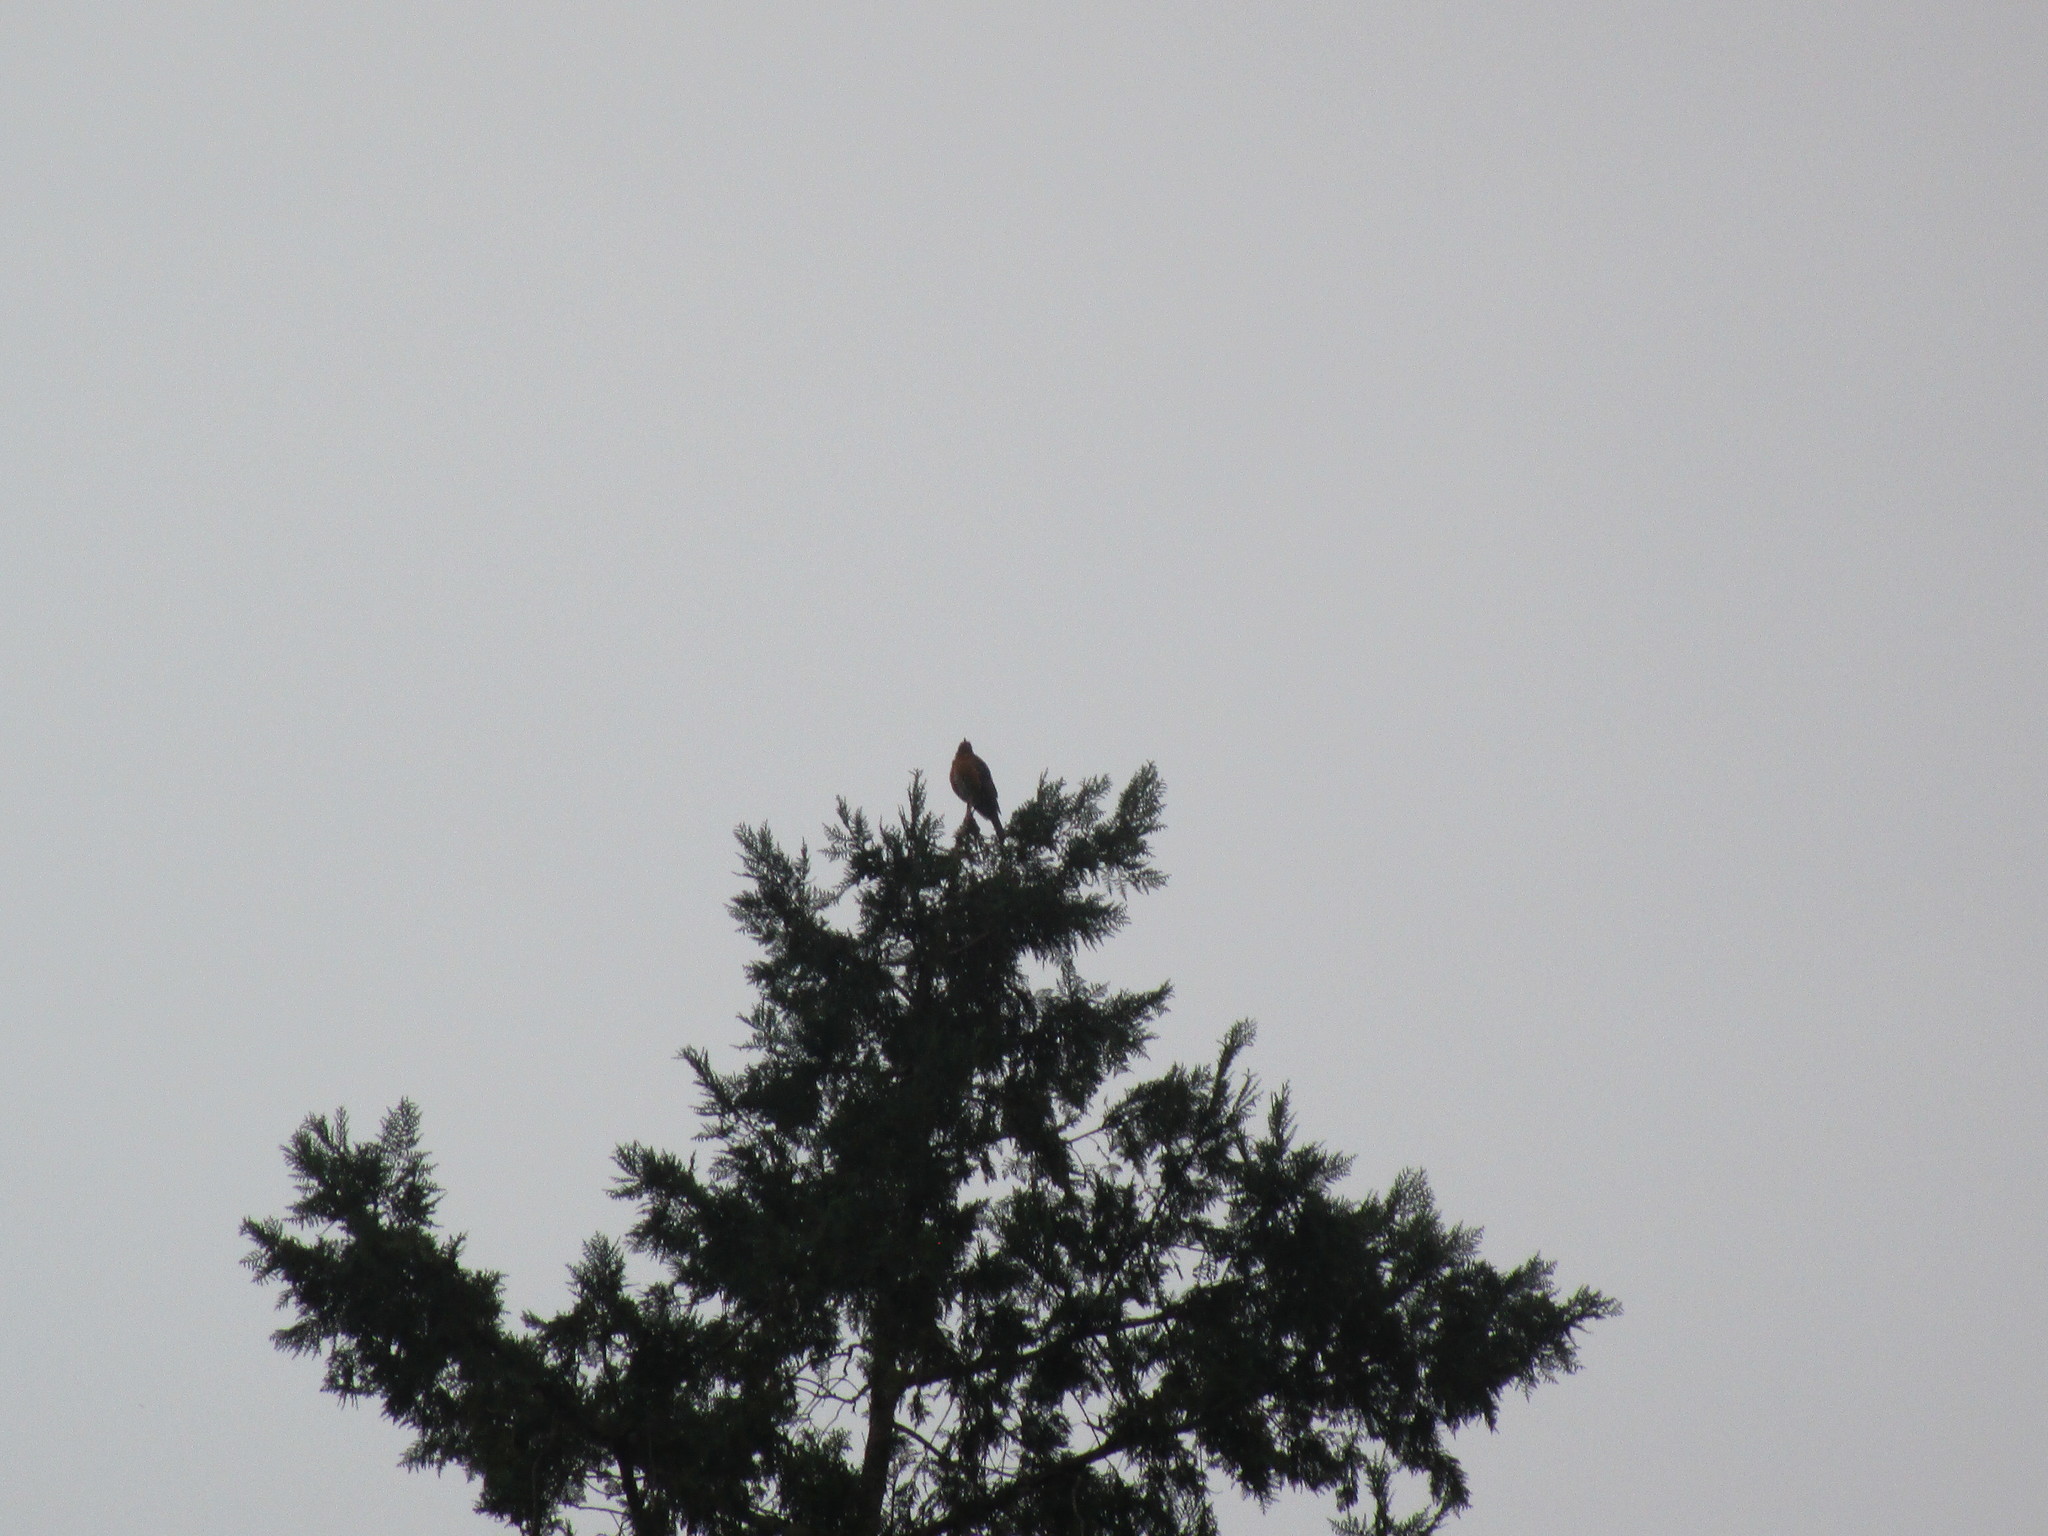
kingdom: Animalia
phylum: Chordata
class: Aves
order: Passeriformes
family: Turdidae
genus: Turdus
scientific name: Turdus migratorius
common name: American robin
